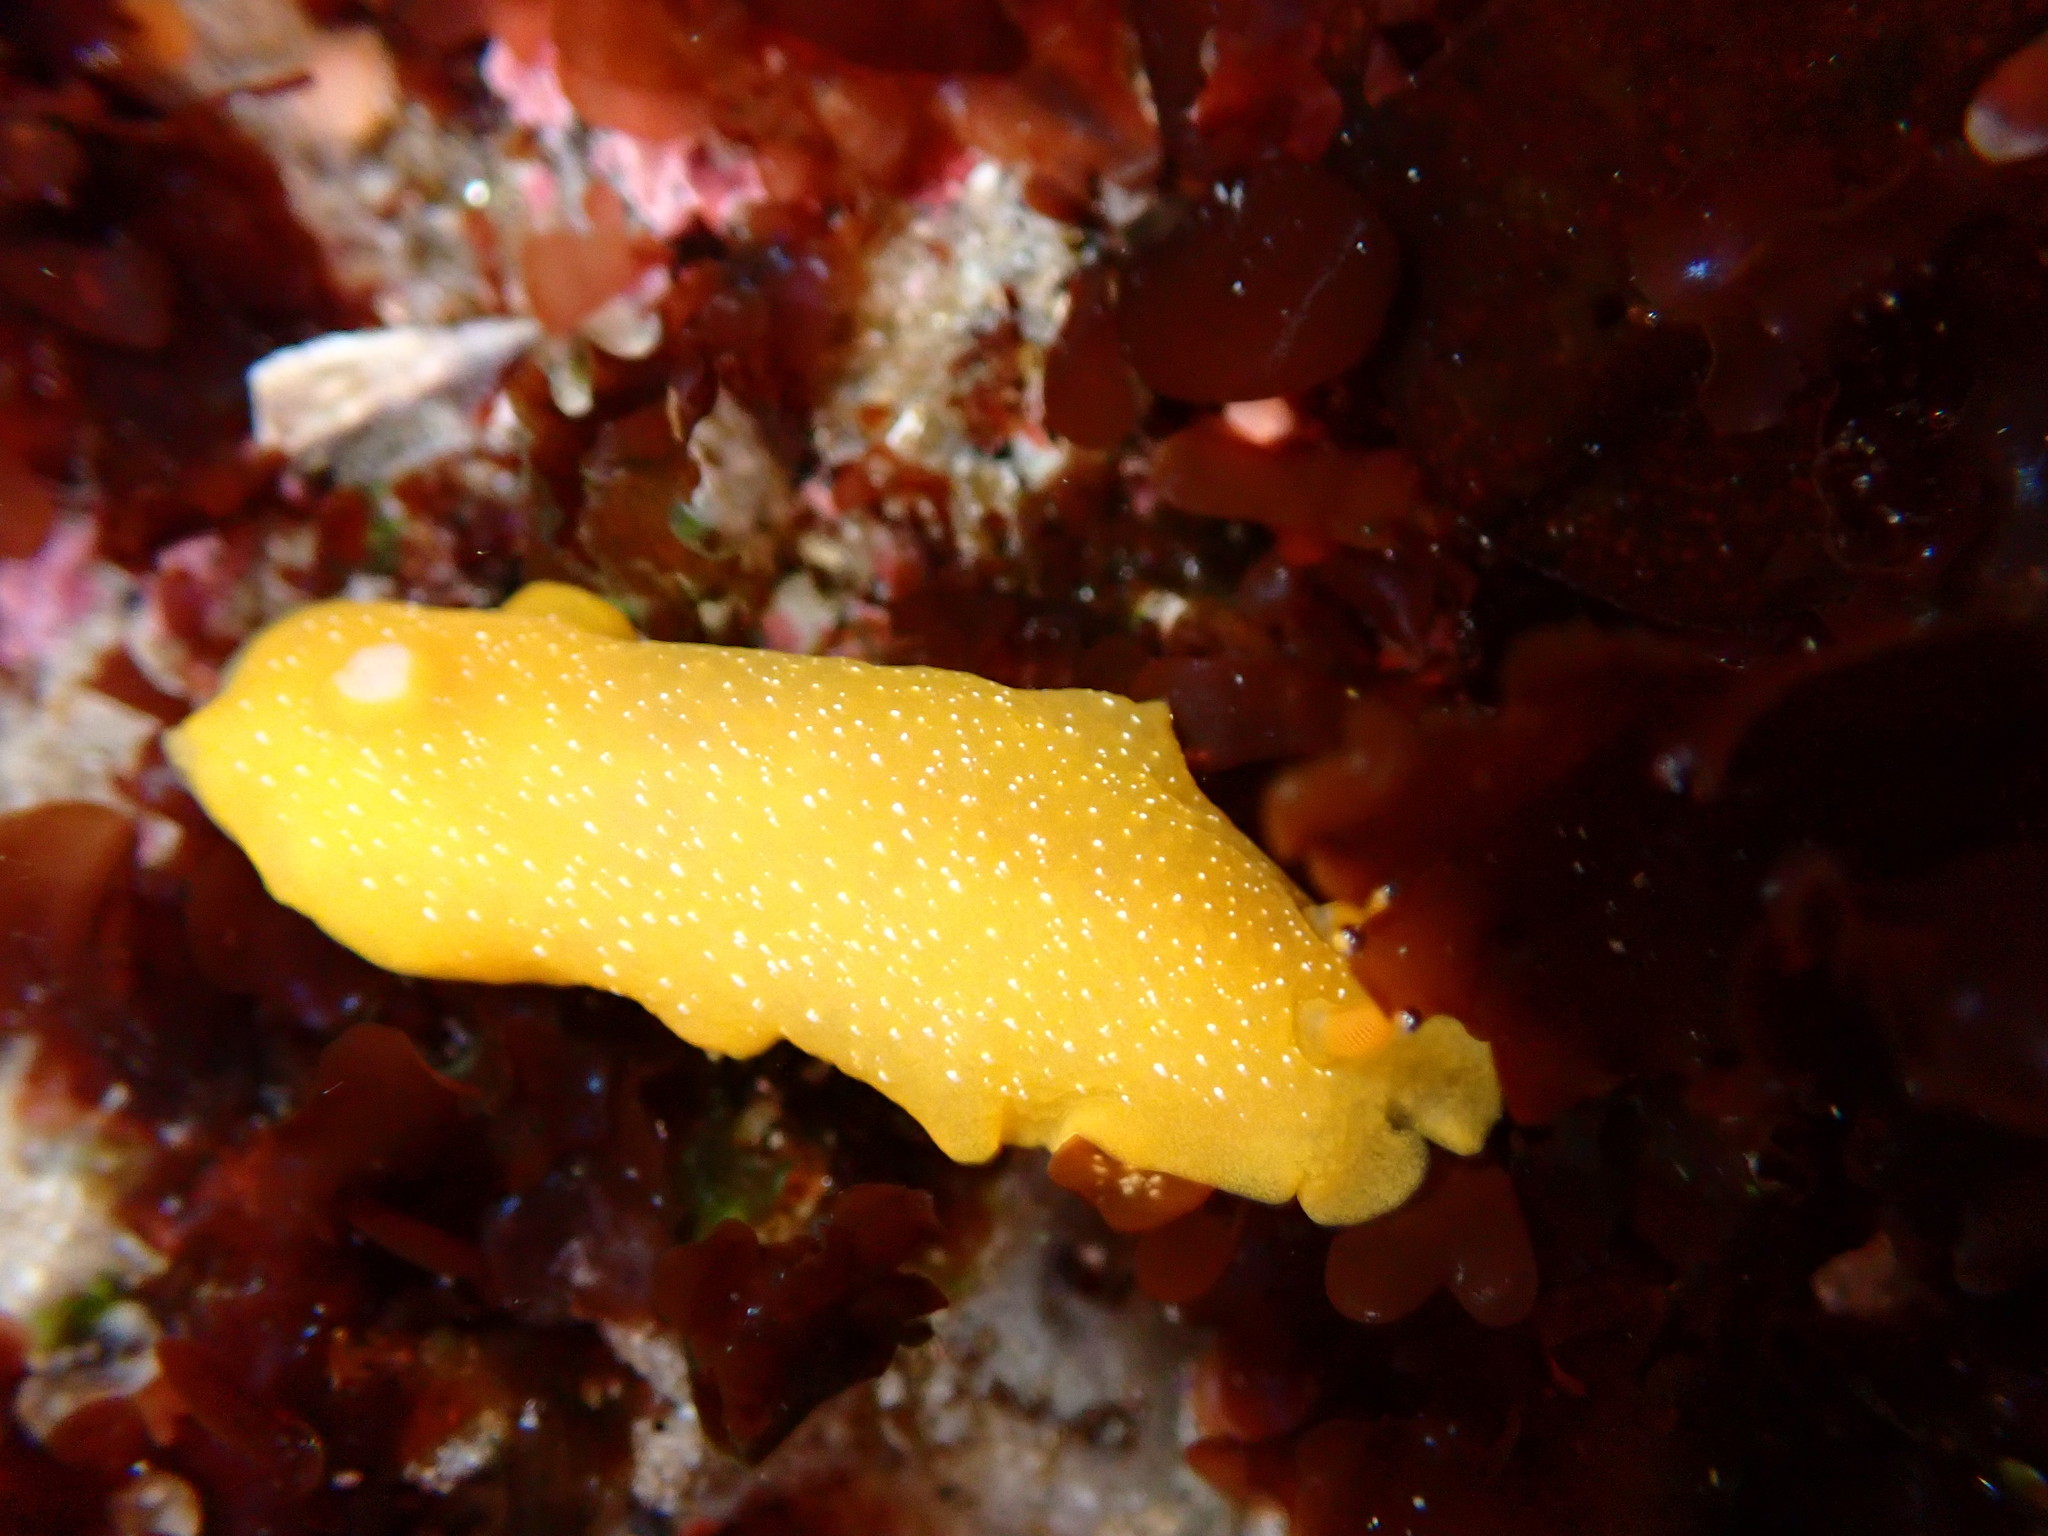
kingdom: Animalia
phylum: Mollusca
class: Gastropoda
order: Nudibranchia
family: Dendrodorididae
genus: Doriopsilla
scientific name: Doriopsilla fulva
